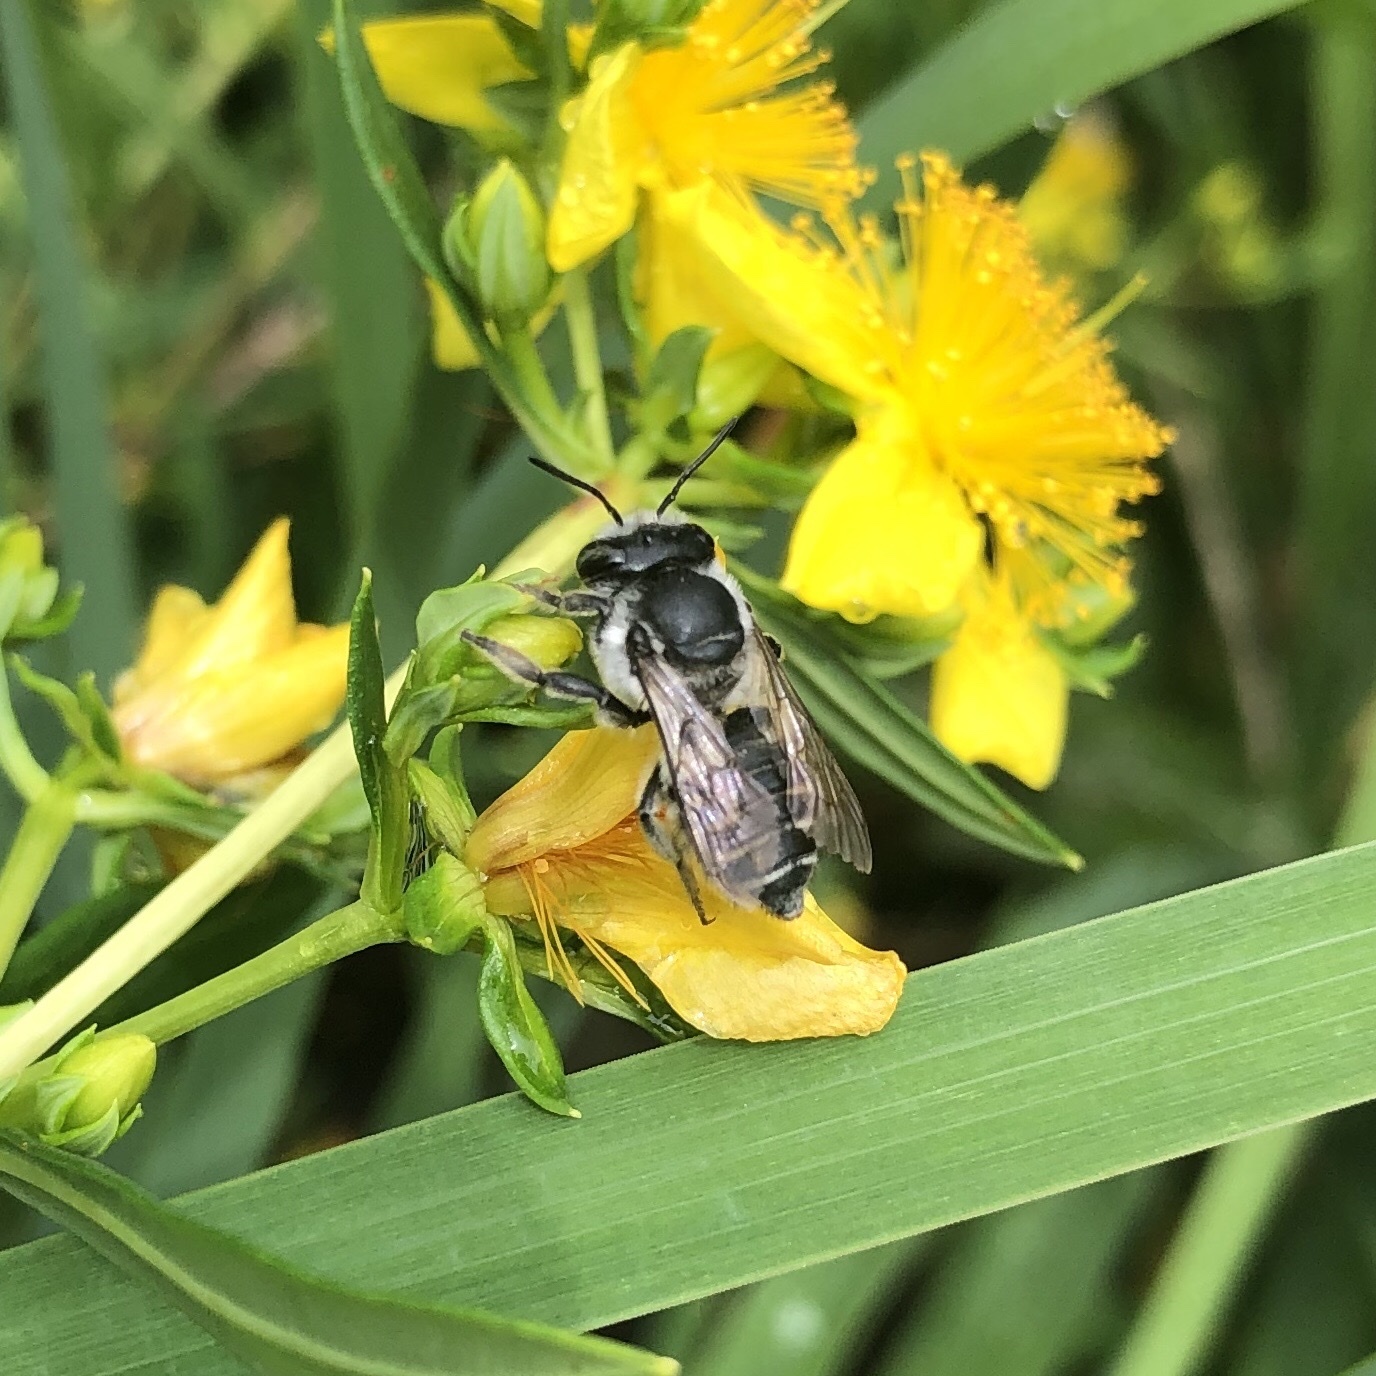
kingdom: Animalia
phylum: Arthropoda
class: Insecta
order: Hymenoptera
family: Megachilidae
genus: Megachile
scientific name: Megachile brevis
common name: Common little leaf-cutter bee
